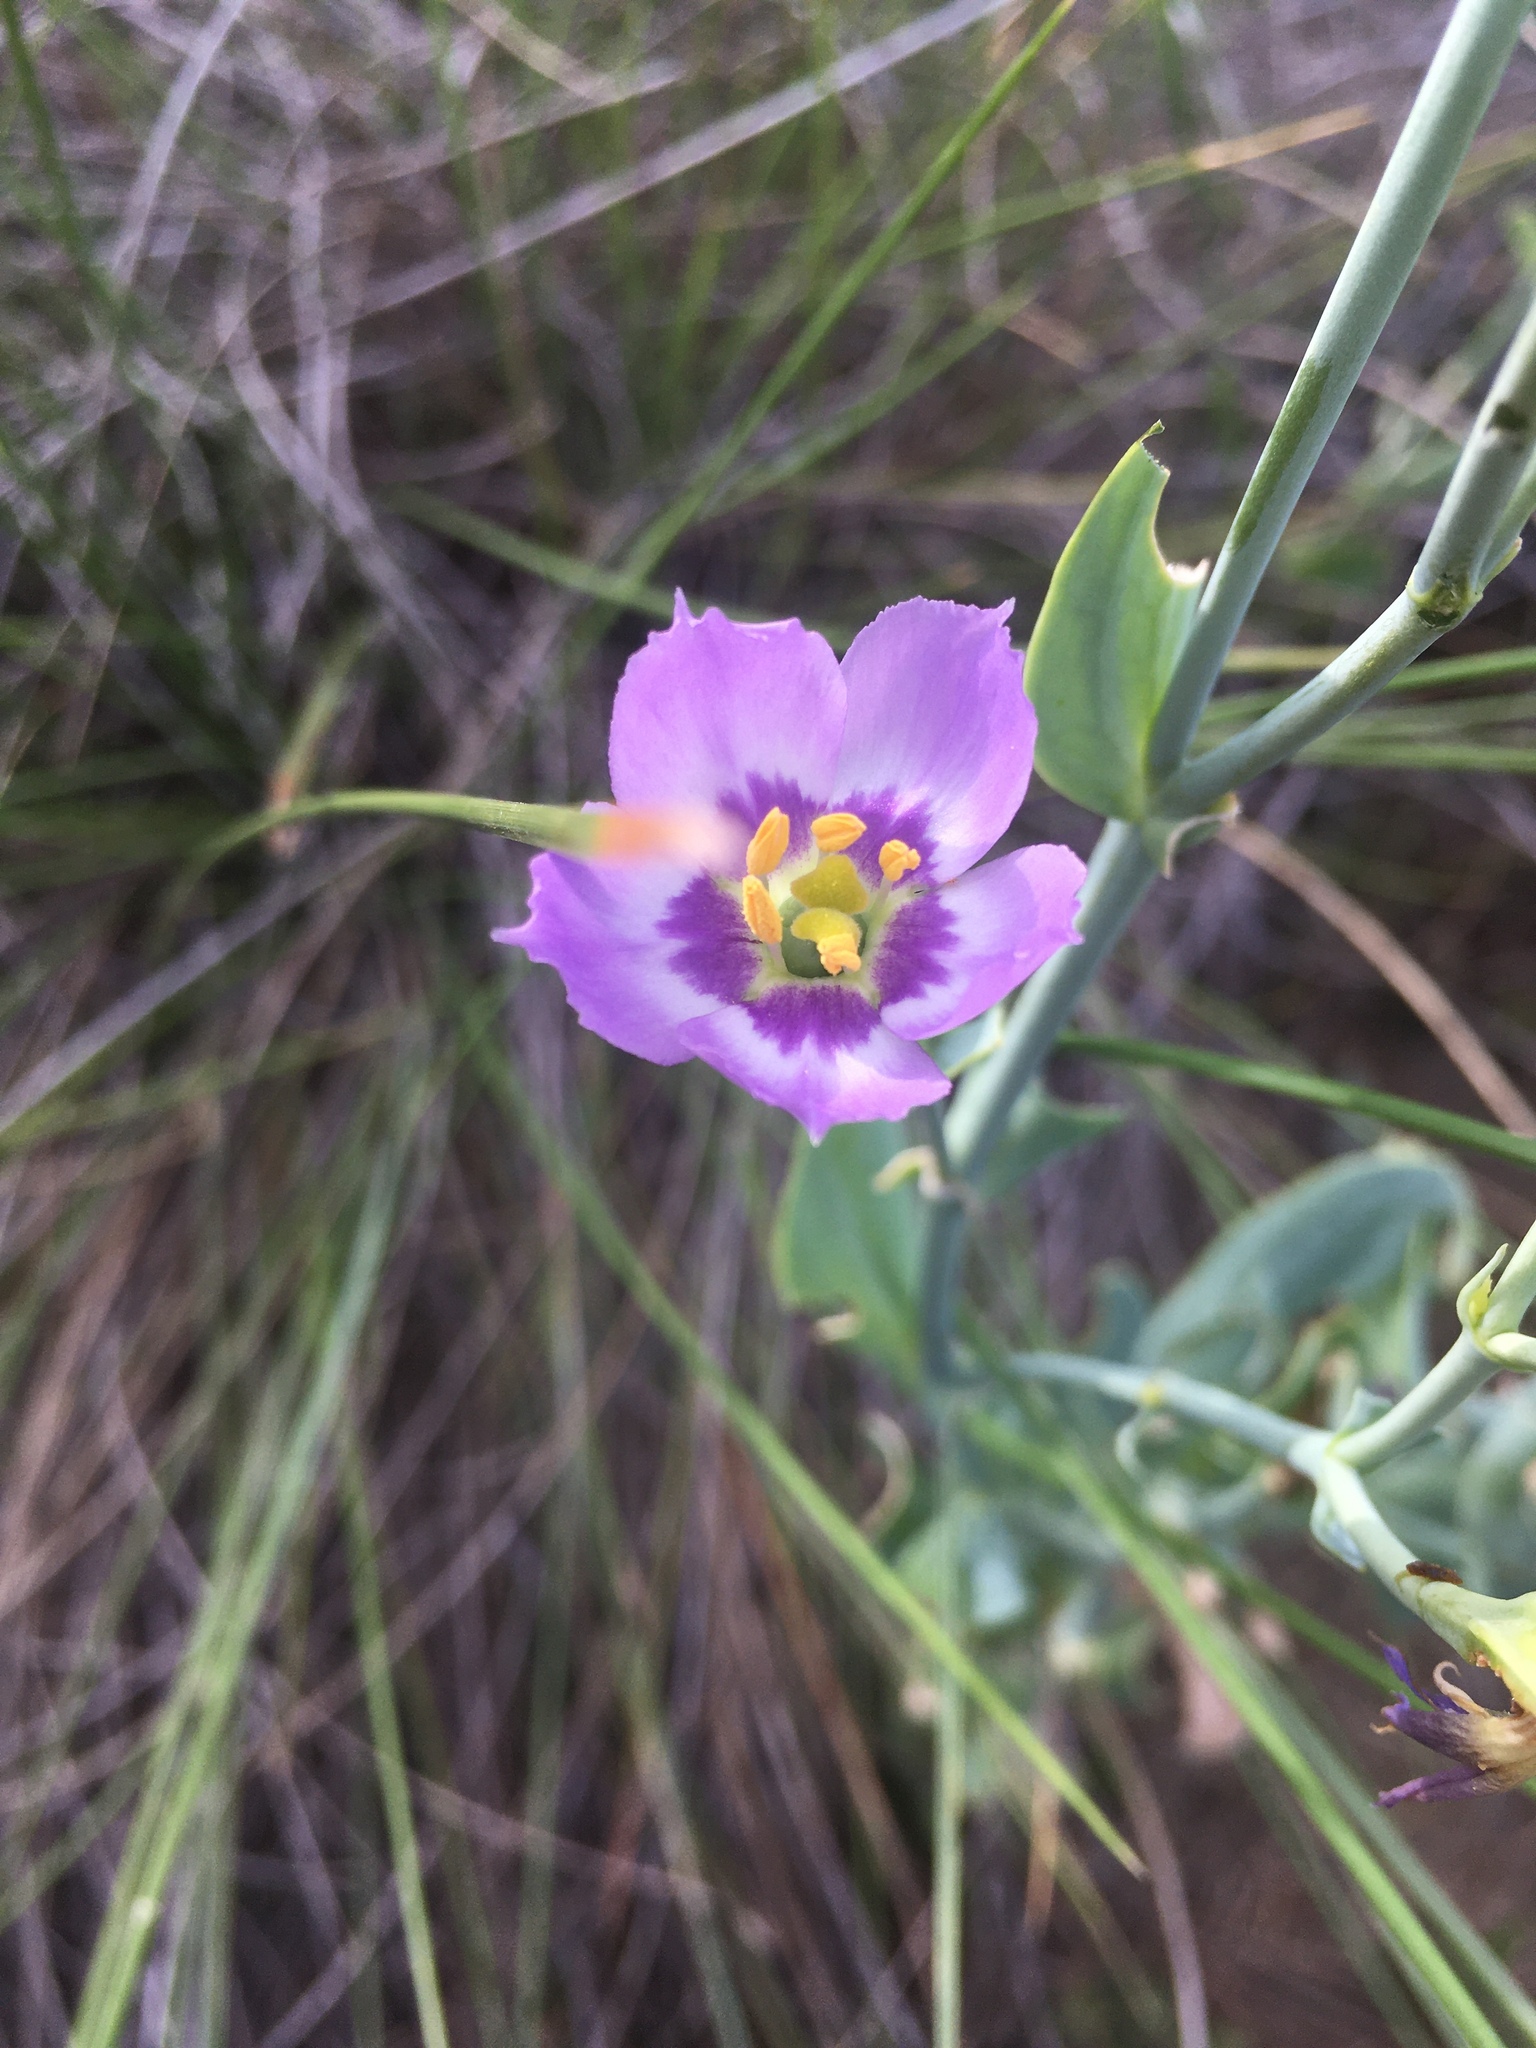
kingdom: Plantae
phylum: Tracheophyta
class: Magnoliopsida
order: Gentianales
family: Gentianaceae
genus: Eustoma
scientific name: Eustoma exaltatum
